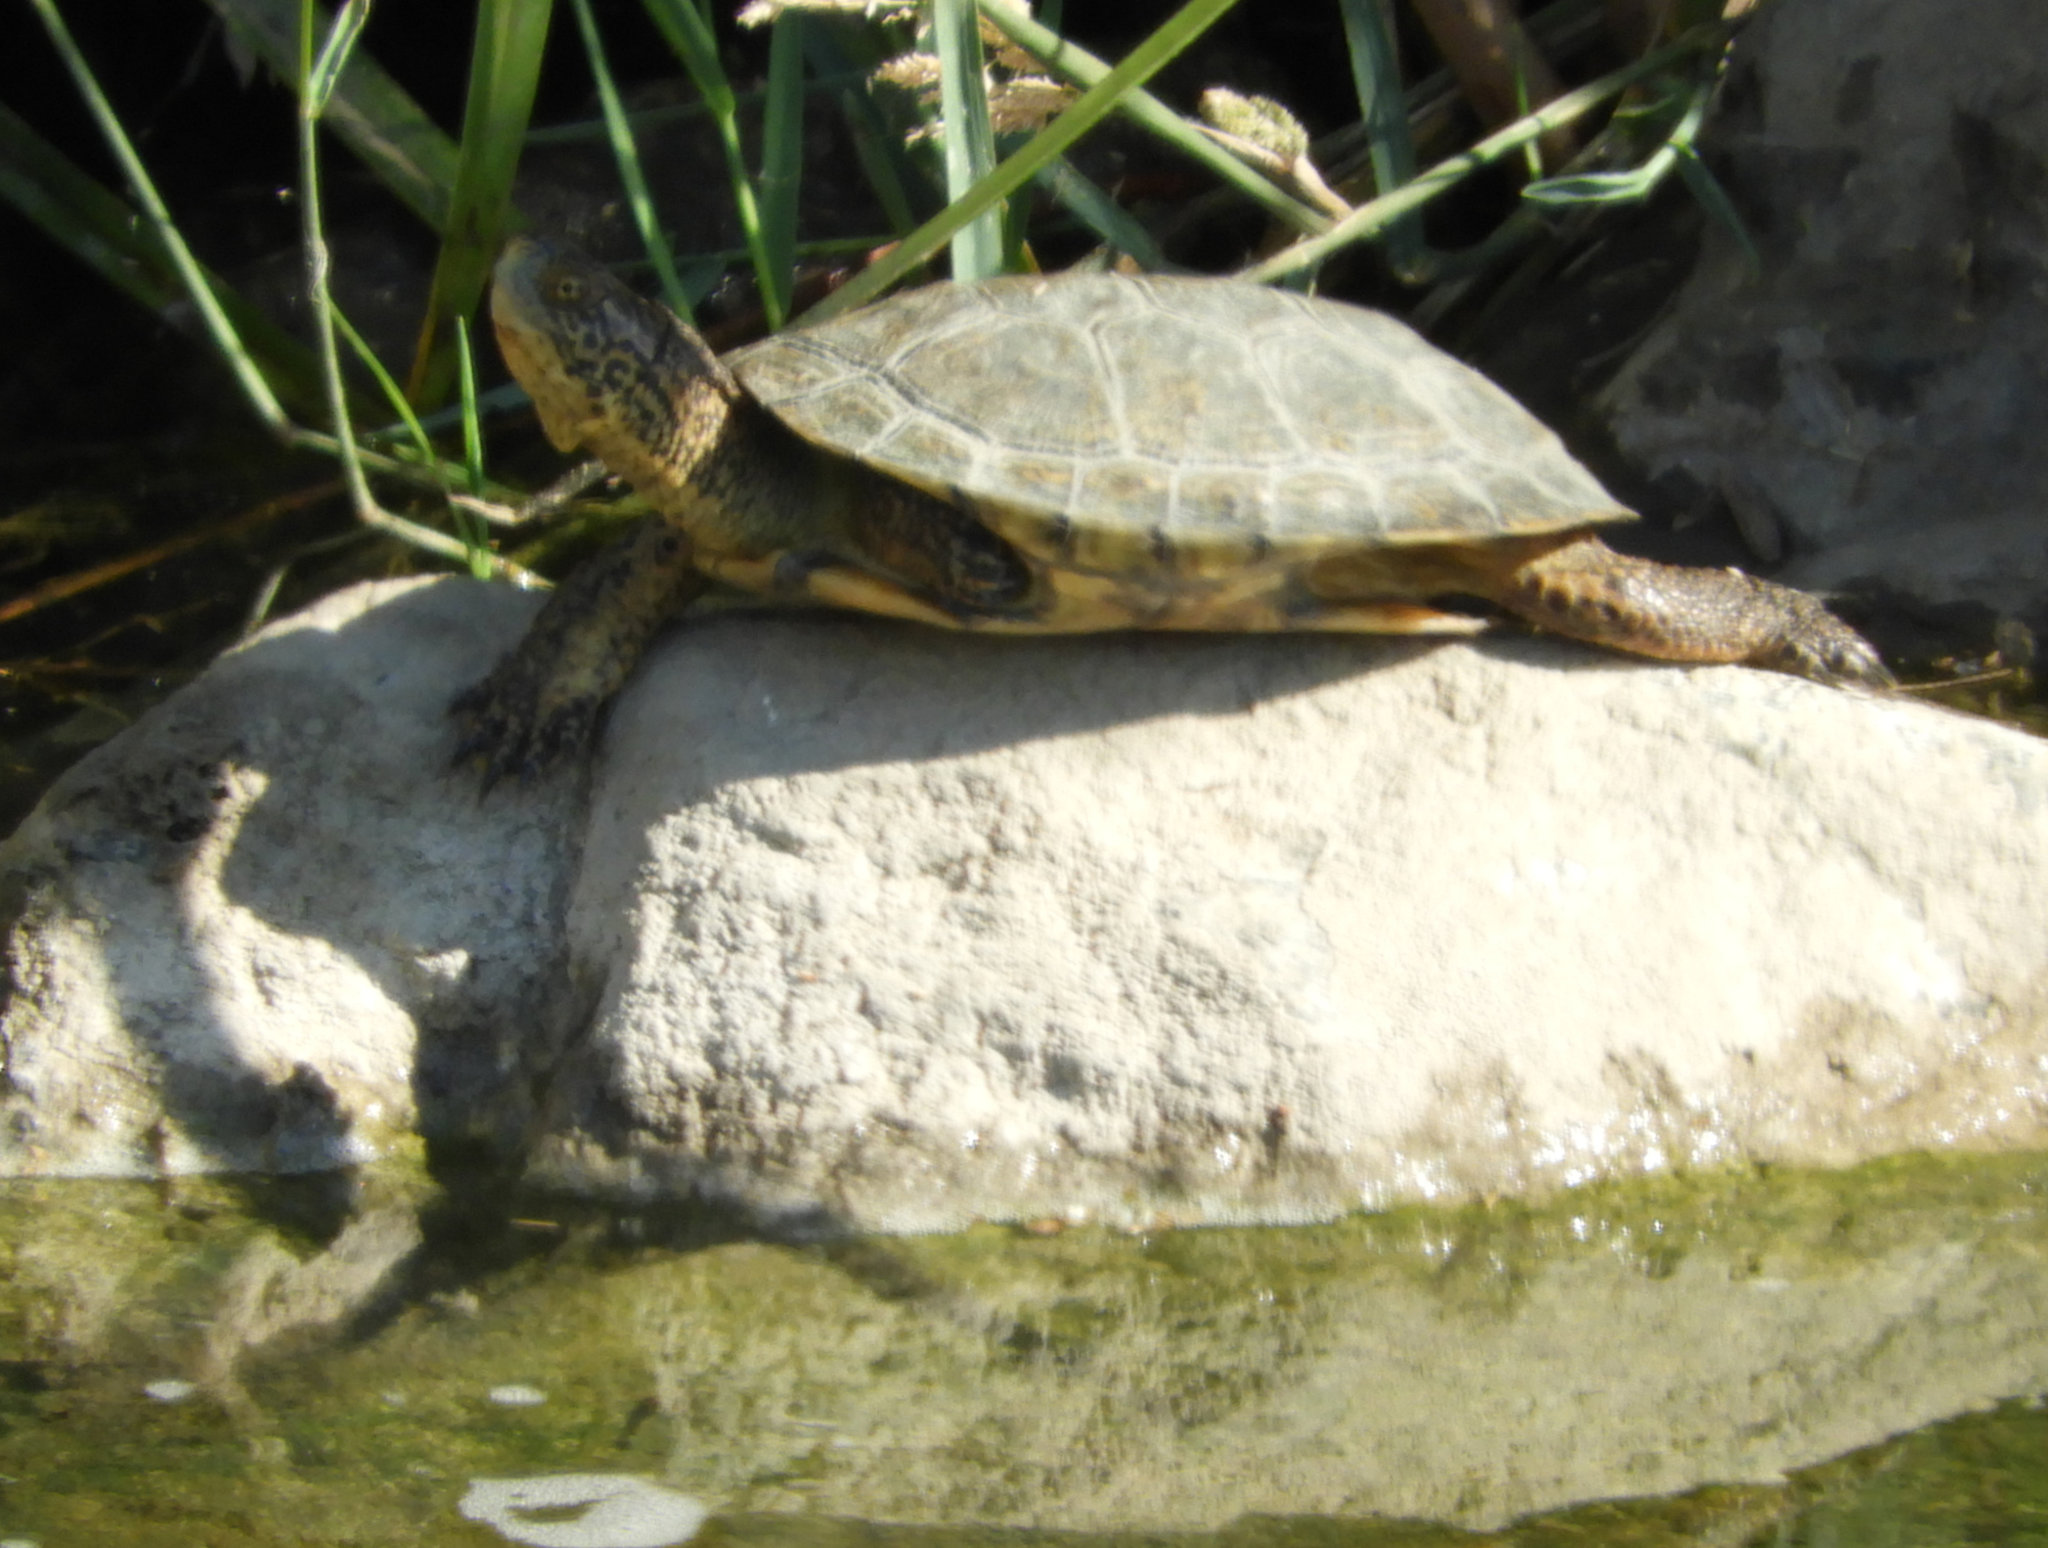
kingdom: Animalia
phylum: Chordata
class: Testudines
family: Emydidae
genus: Actinemys
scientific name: Actinemys marmorata
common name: Western pond turtle
